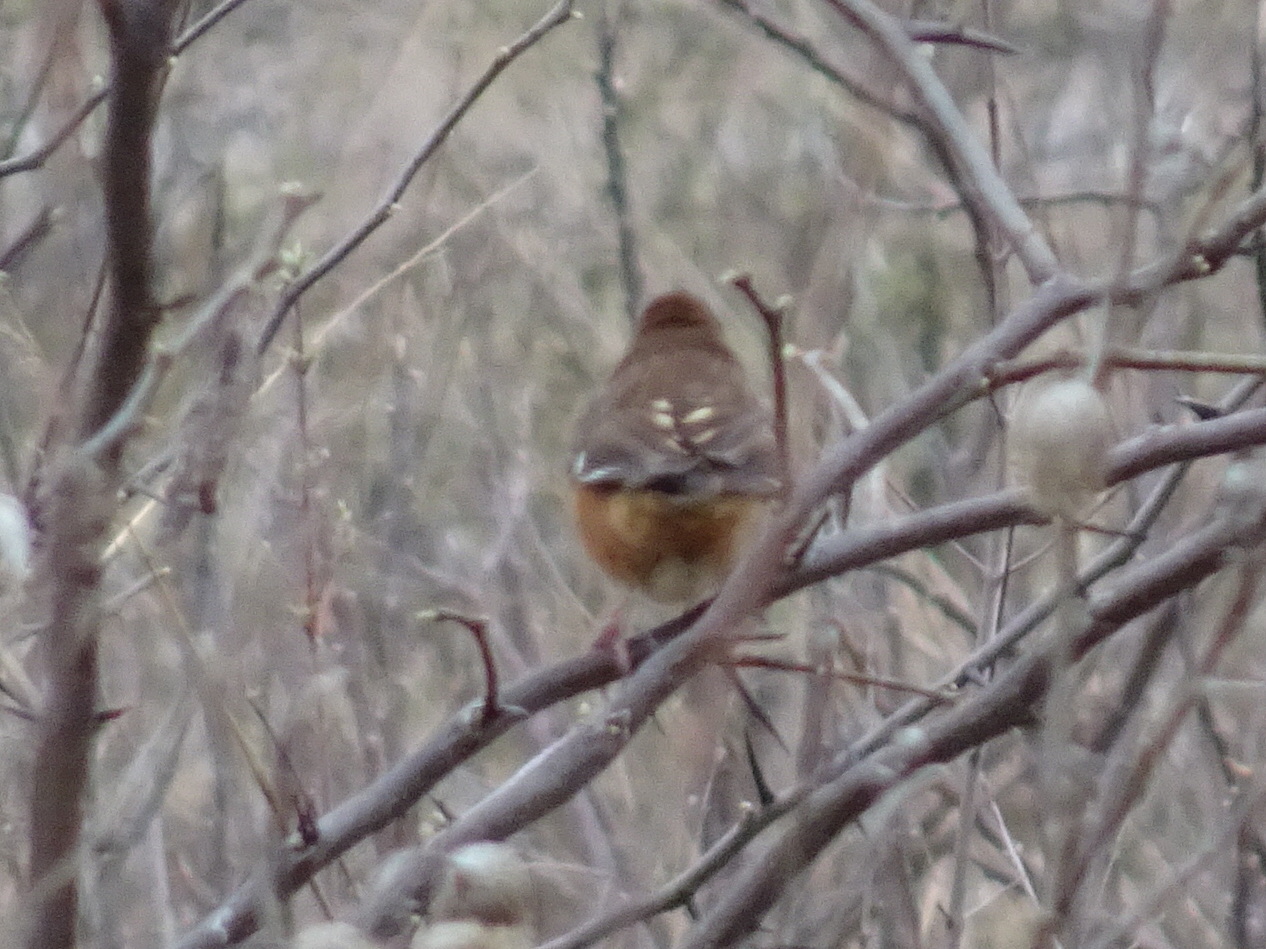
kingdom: Animalia
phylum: Chordata
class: Aves
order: Passeriformes
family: Passerellidae
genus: Pipilo
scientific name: Pipilo erythrophthalmus
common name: Eastern towhee
